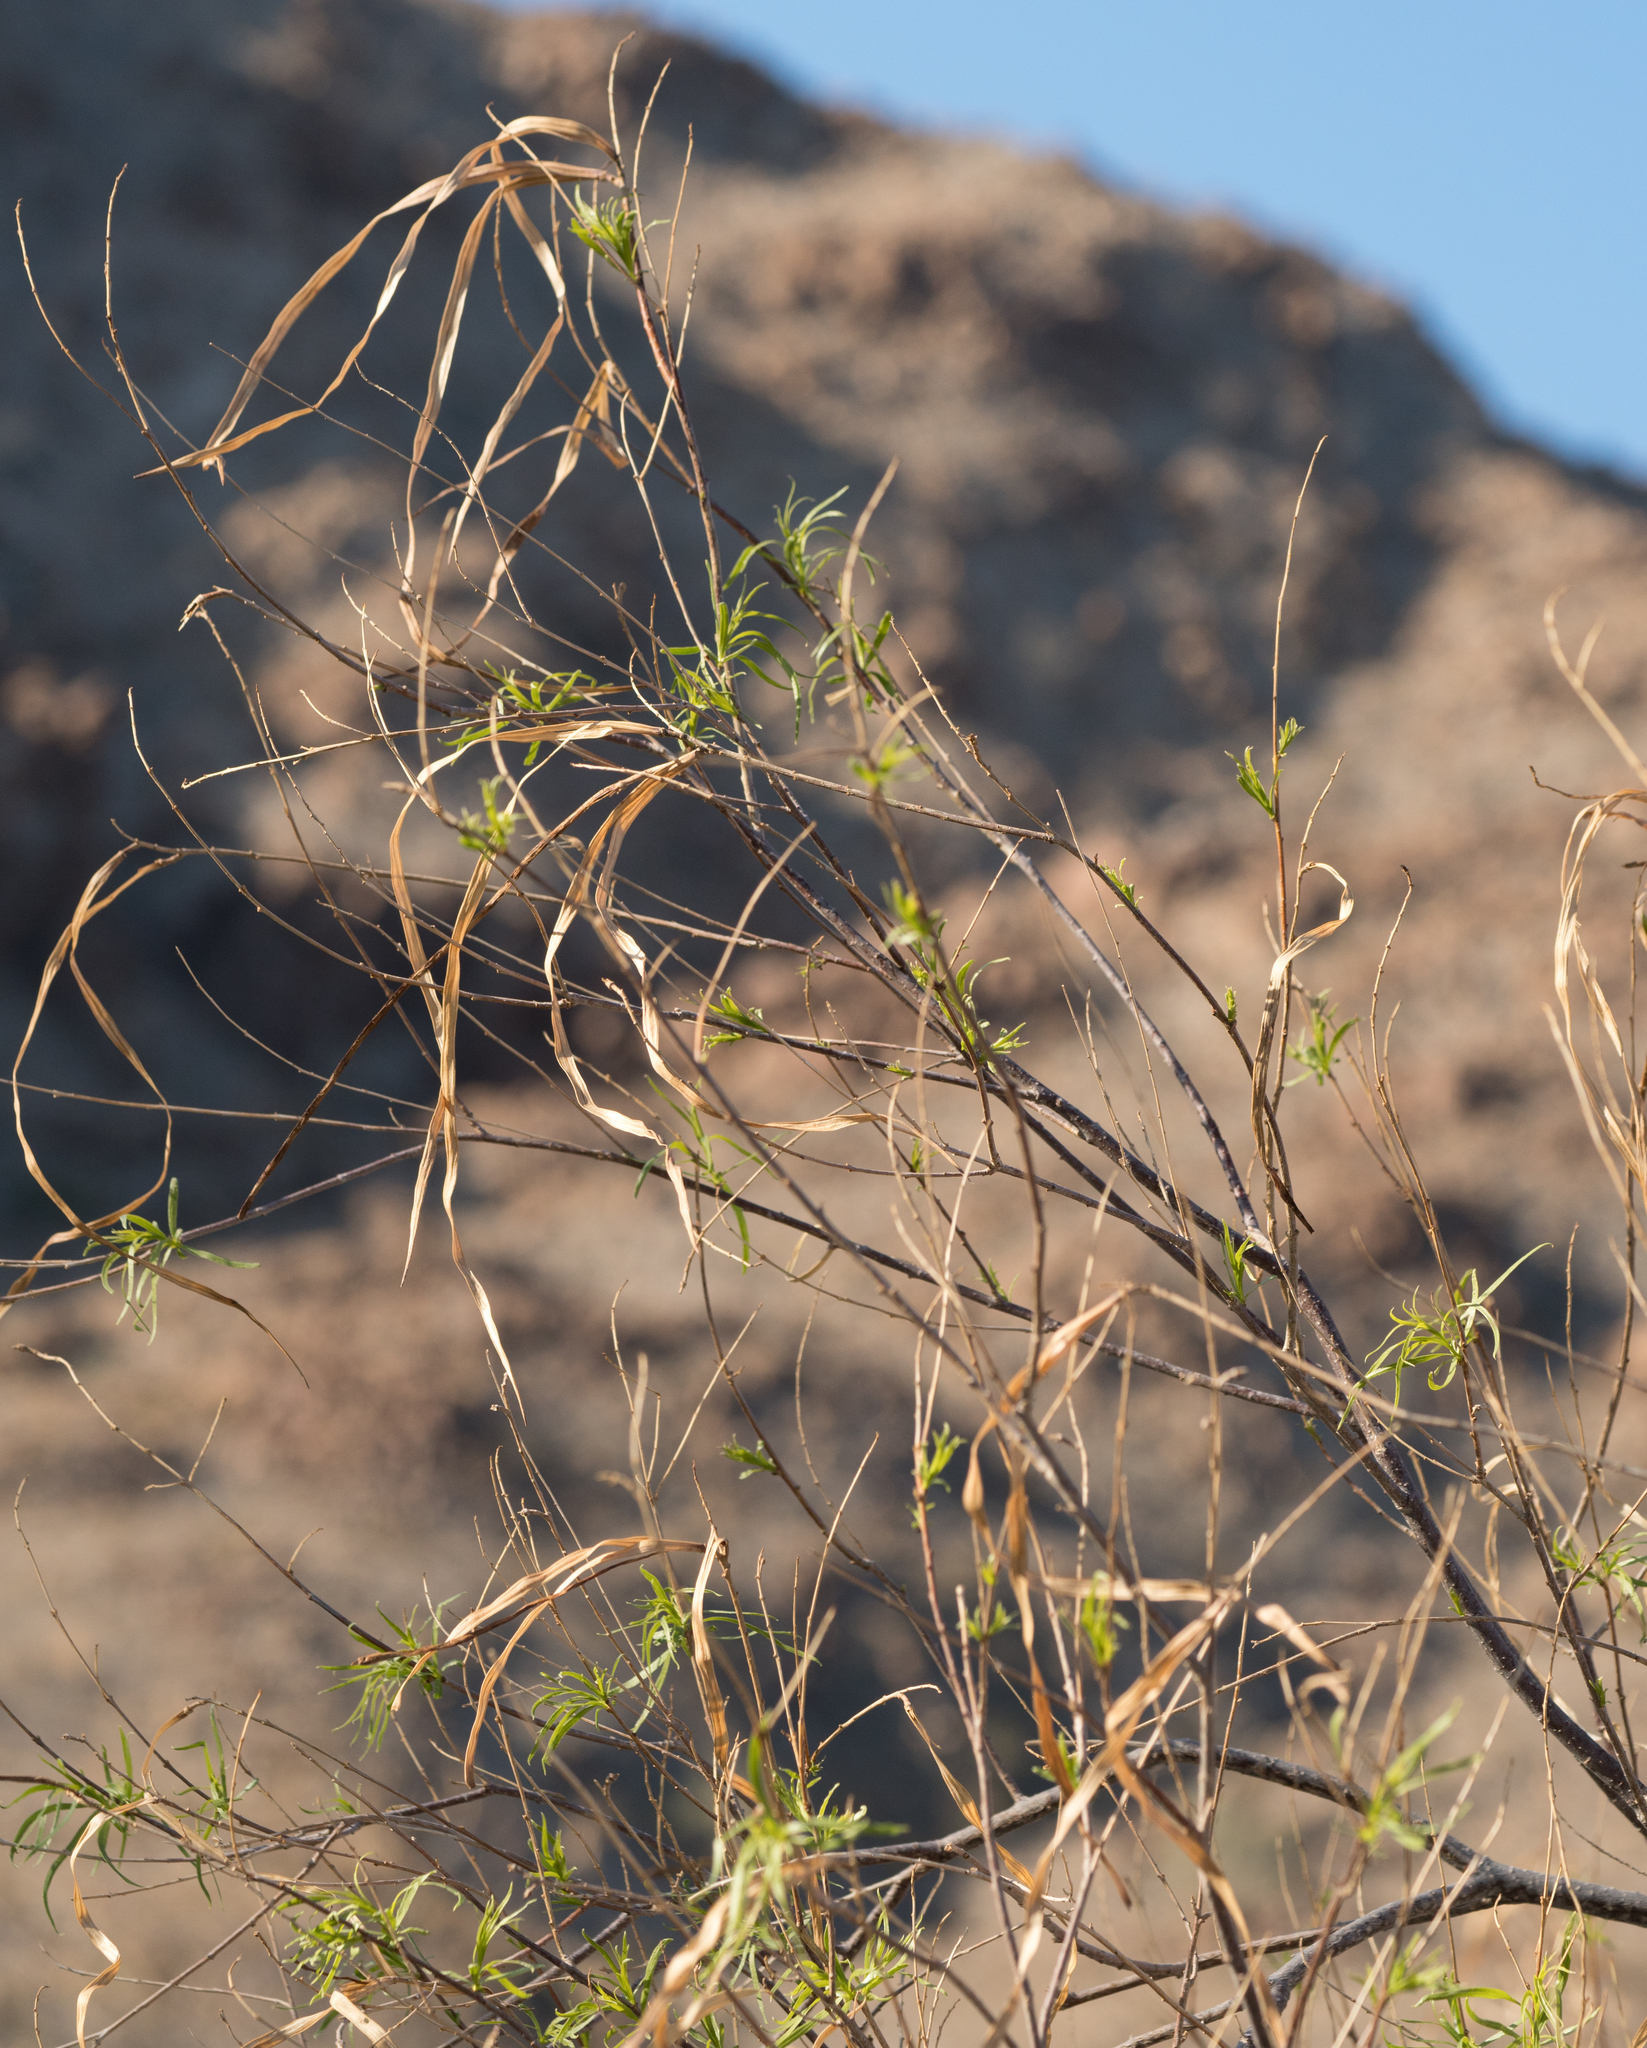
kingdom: Plantae
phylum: Tracheophyta
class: Magnoliopsida
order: Lamiales
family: Bignoniaceae
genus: Chilopsis
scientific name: Chilopsis linearis
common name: Desert-willow
